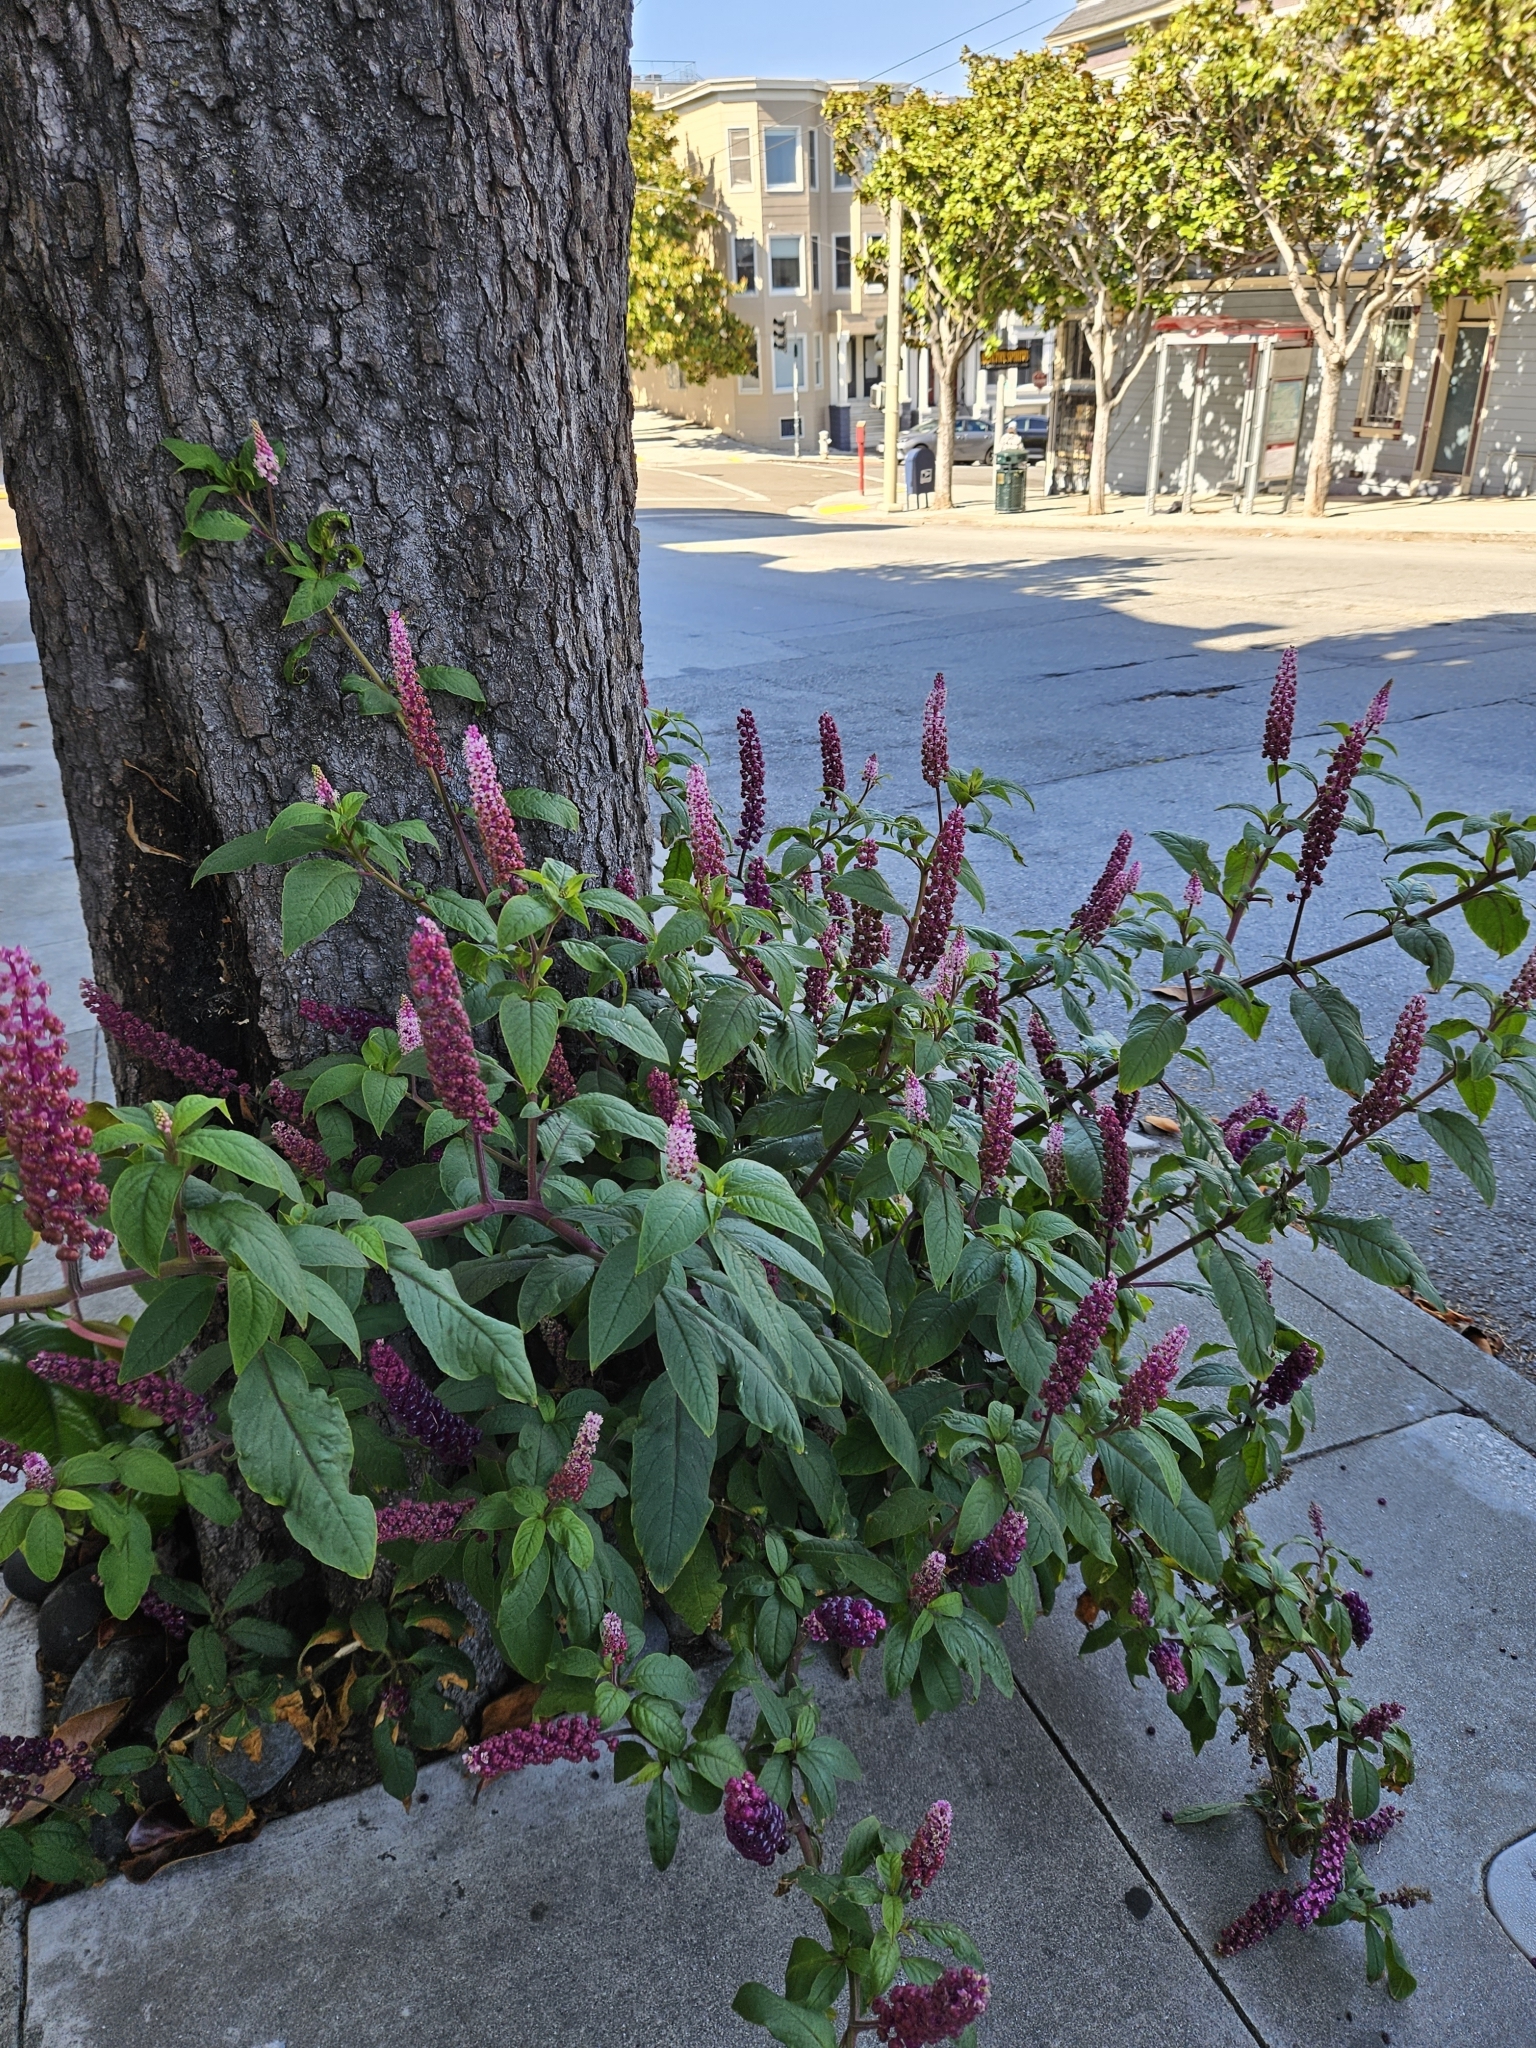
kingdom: Plantae
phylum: Tracheophyta
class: Magnoliopsida
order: Caryophyllales
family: Phytolaccaceae
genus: Phytolacca
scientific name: Phytolacca rugosa
